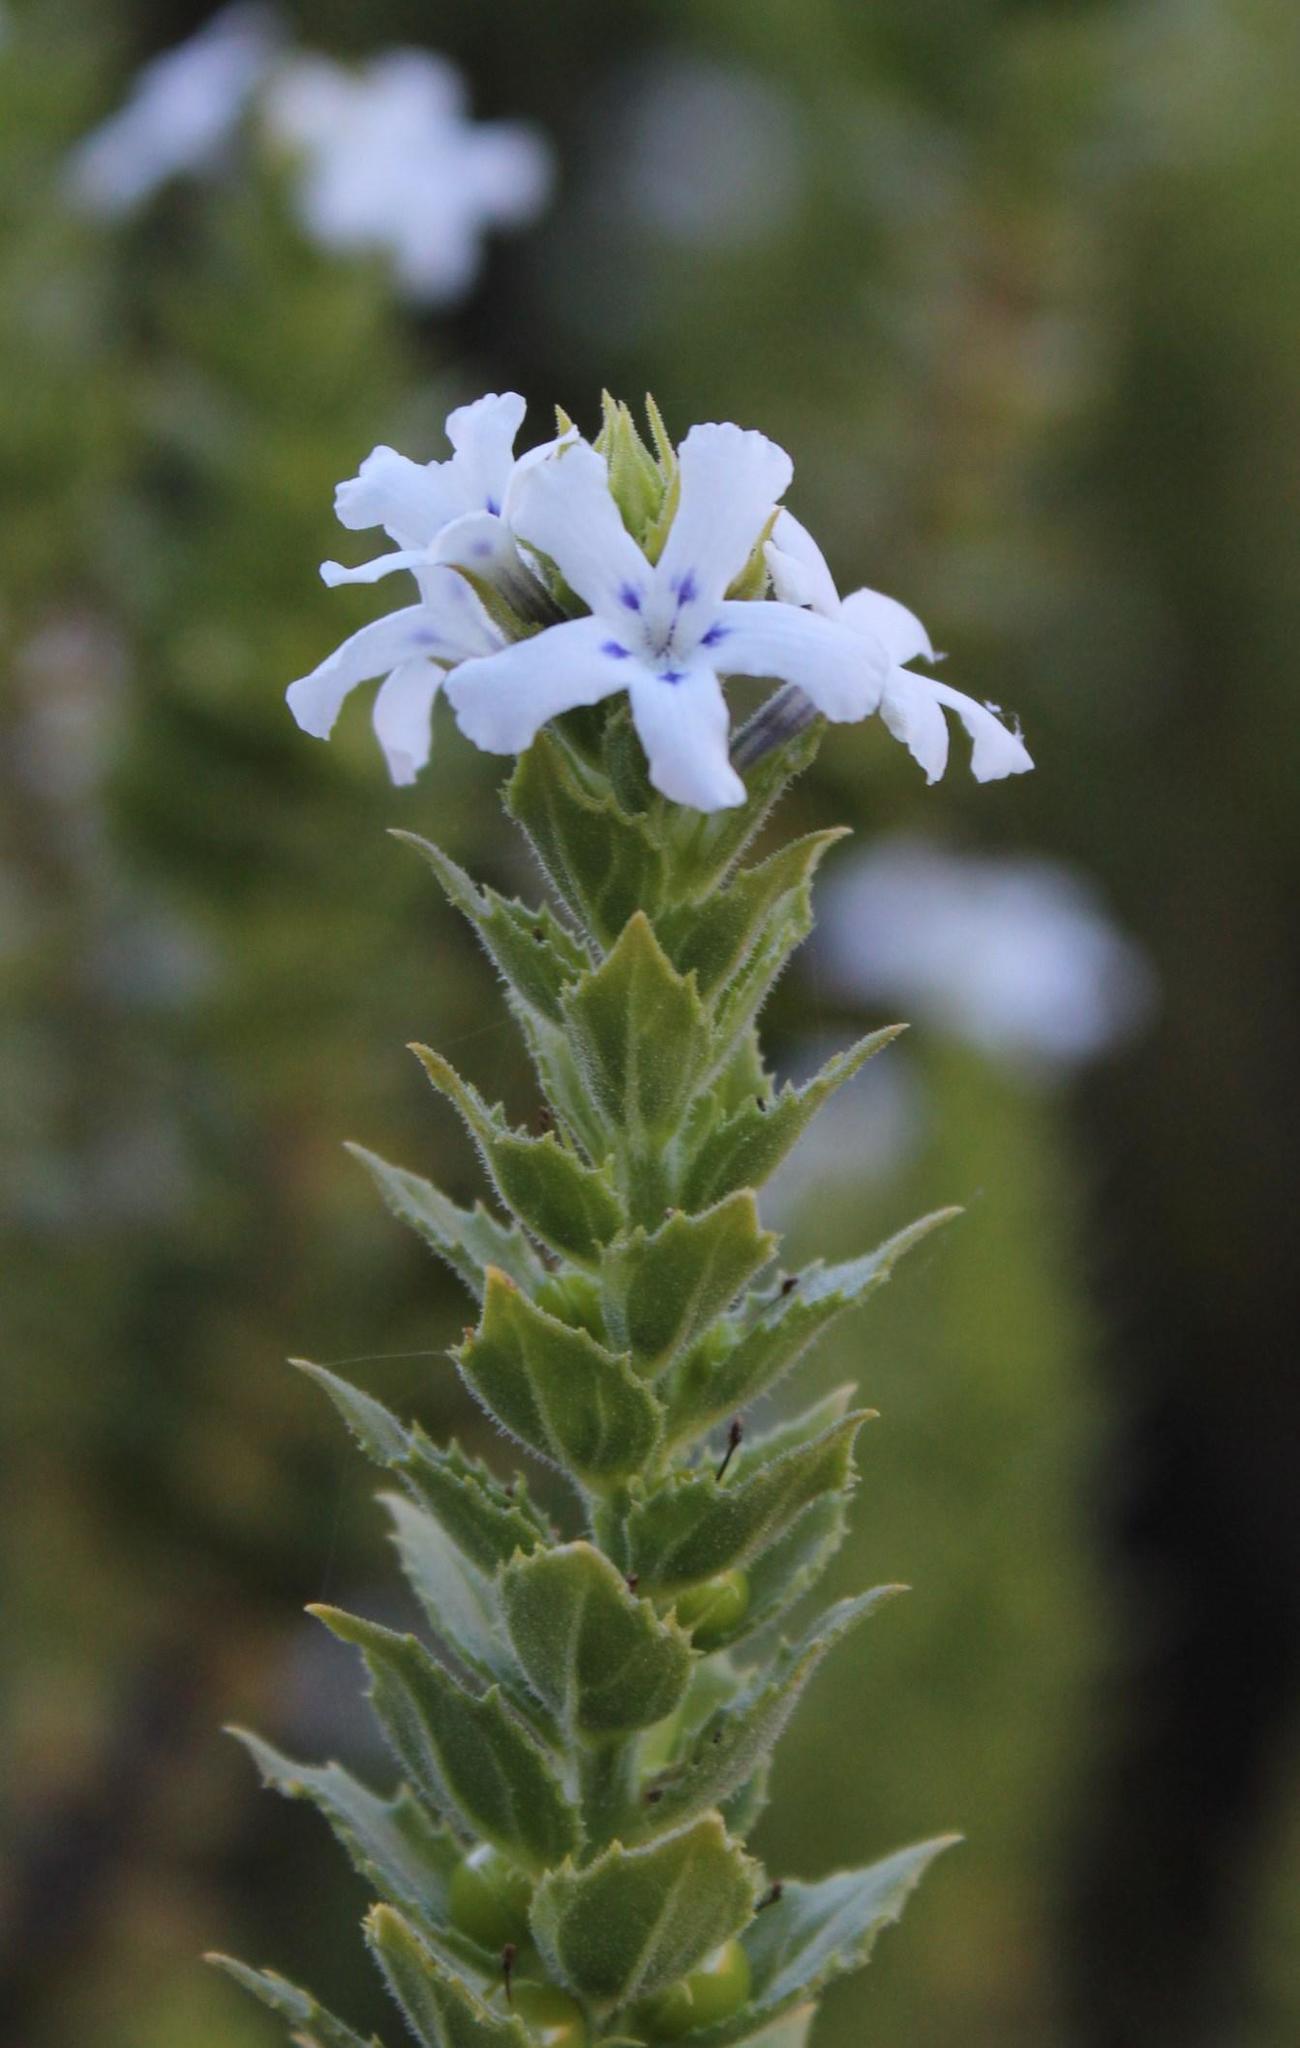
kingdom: Plantae
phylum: Tracheophyta
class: Magnoliopsida
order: Lamiales
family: Scrophulariaceae
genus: Oftia
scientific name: Oftia africana
